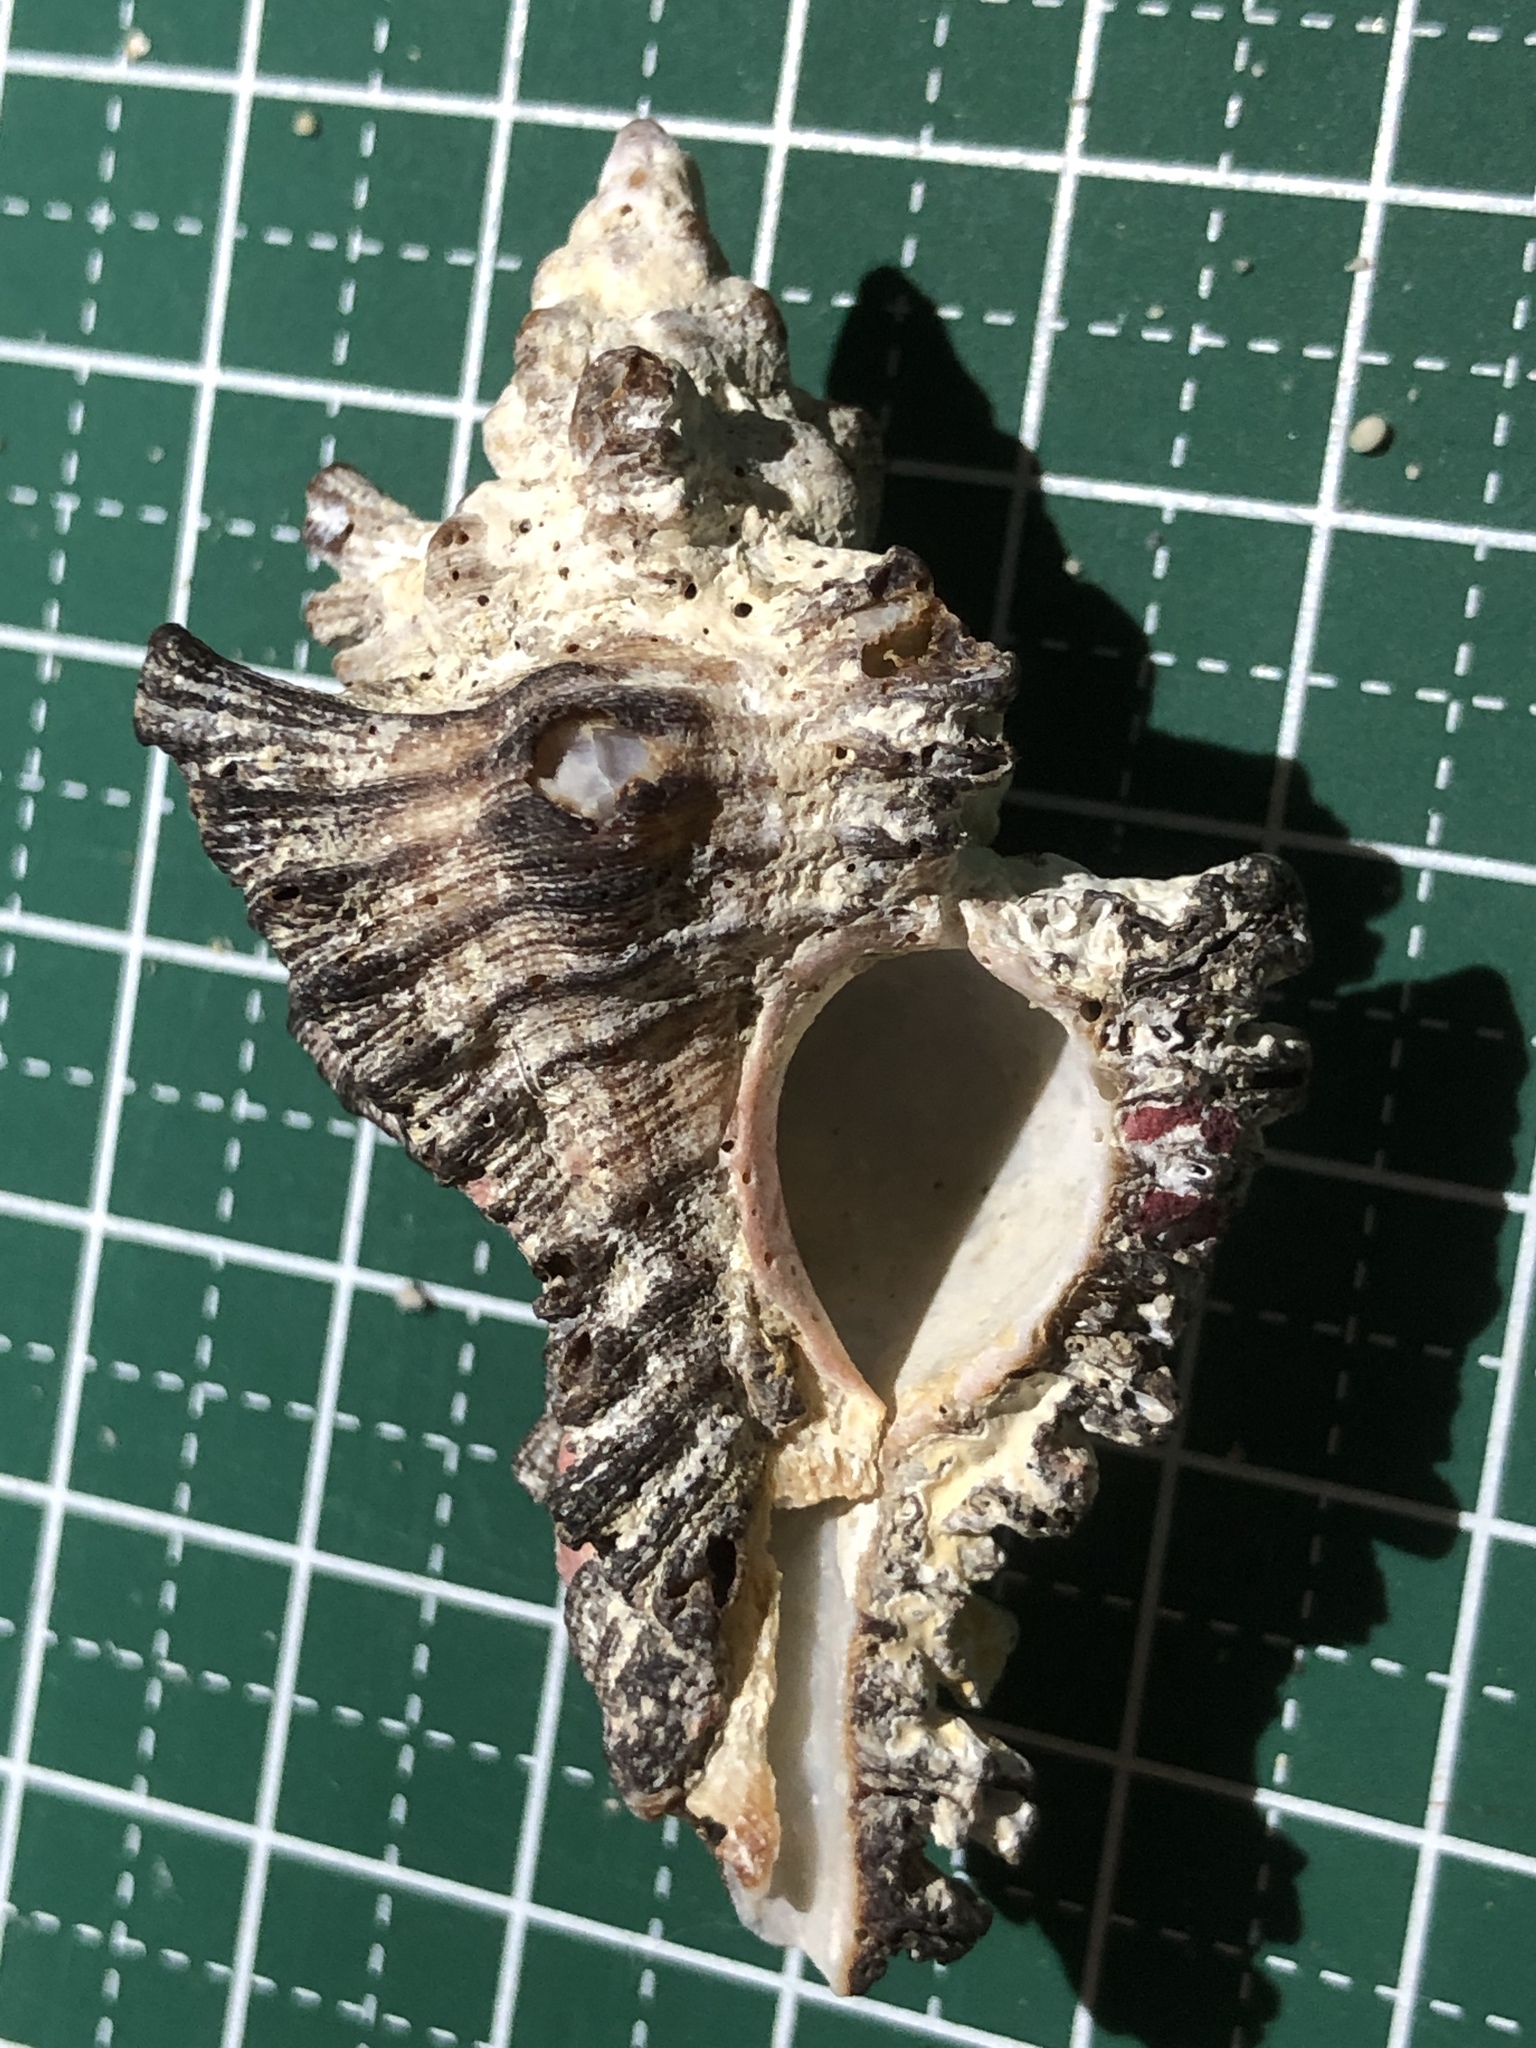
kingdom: Animalia
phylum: Mollusca
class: Gastropoda
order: Neogastropoda
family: Muricidae
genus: Chicoreus
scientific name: Chicoreus brunneus
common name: Adusta murex
